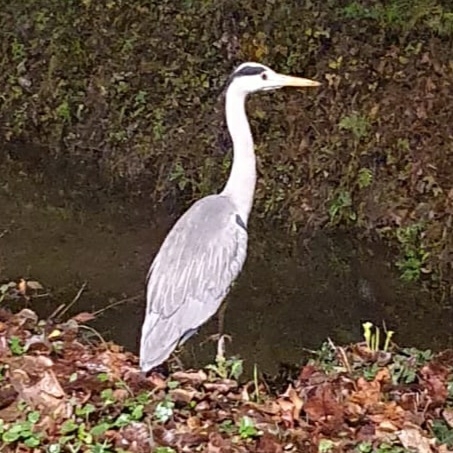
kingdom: Animalia
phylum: Chordata
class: Aves
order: Pelecaniformes
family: Ardeidae
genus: Ardea
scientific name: Ardea cinerea
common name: Grey heron
